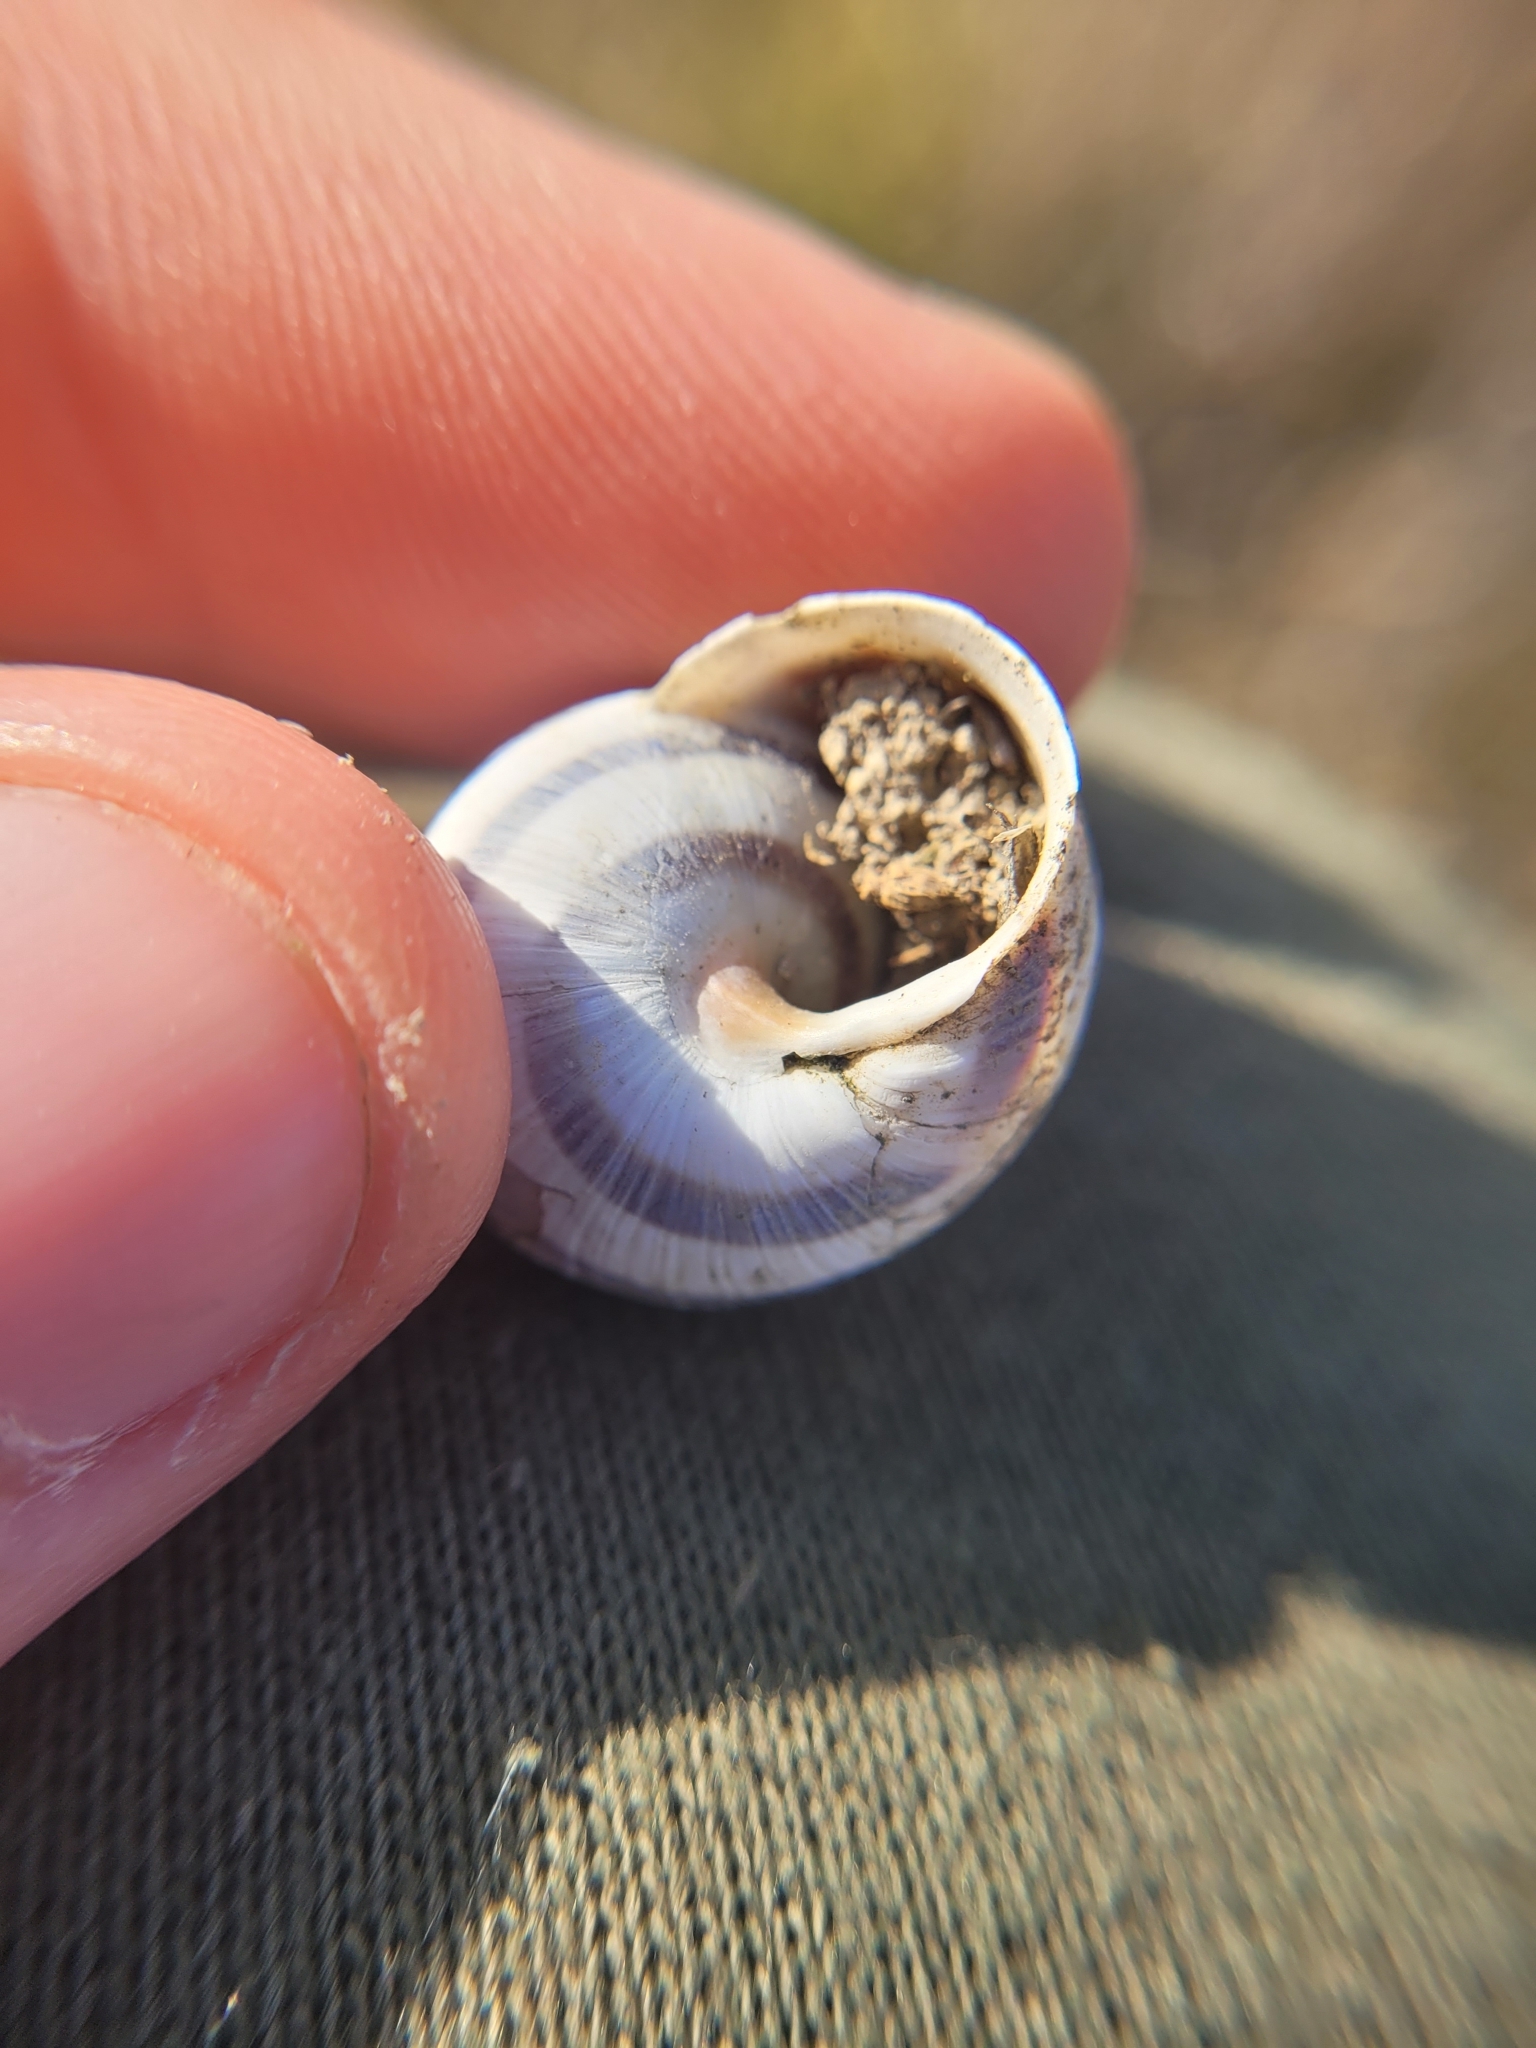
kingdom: Animalia
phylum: Mollusca
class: Gastropoda
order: Stylommatophora
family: Helicidae
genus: Caucasotachea
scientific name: Caucasotachea vindobonensis
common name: European helicid land snail
